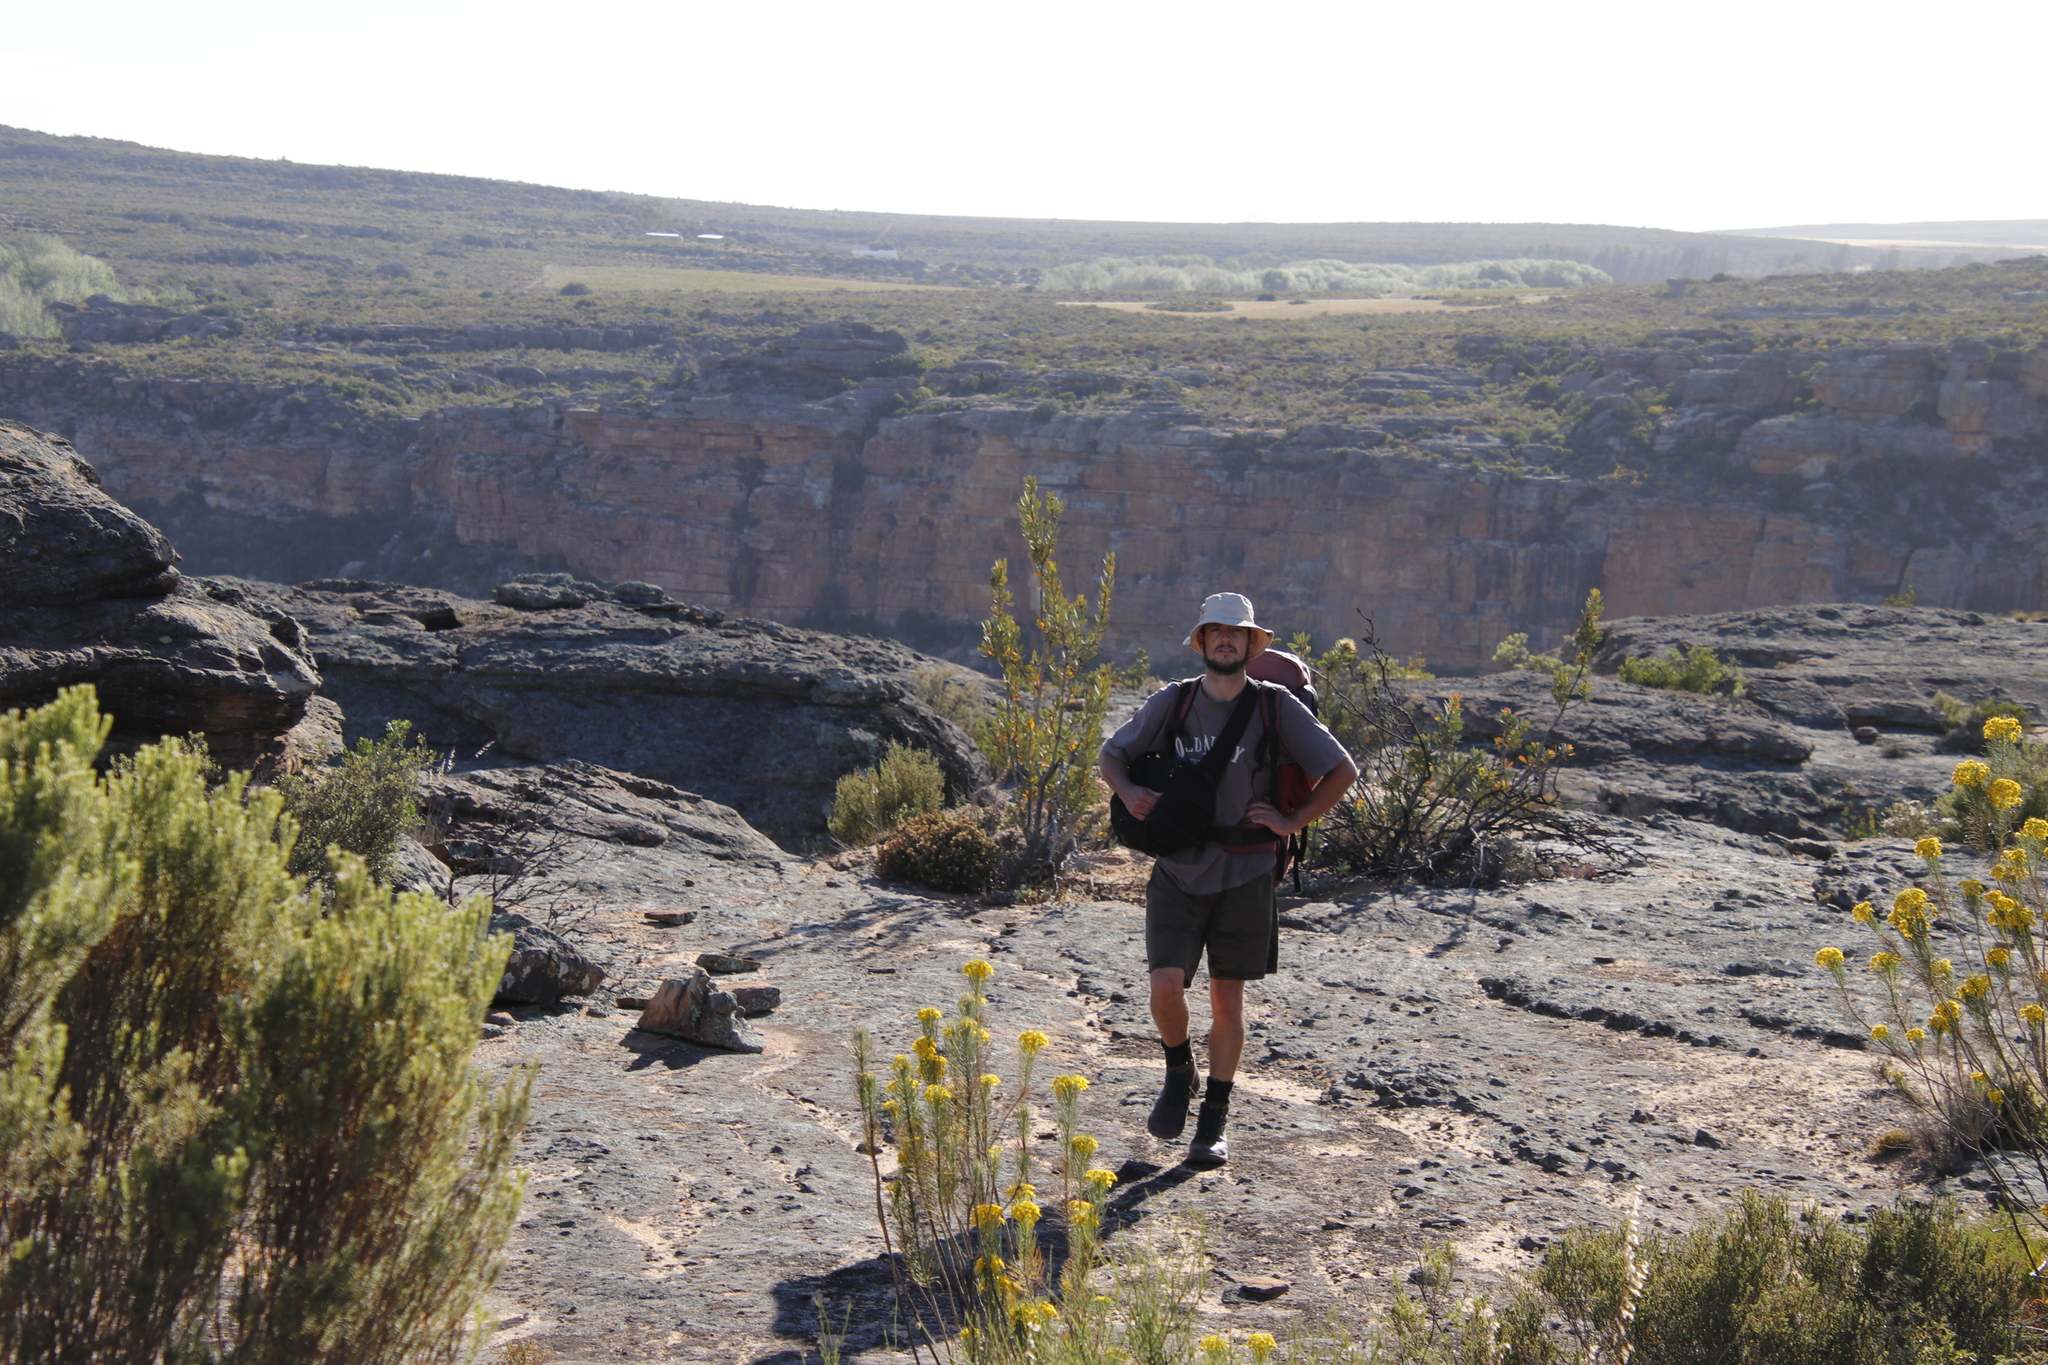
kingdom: Plantae
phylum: Tracheophyta
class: Magnoliopsida
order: Proteales
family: Proteaceae
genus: Protea
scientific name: Protea glabra
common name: Chestnut sugarbush
